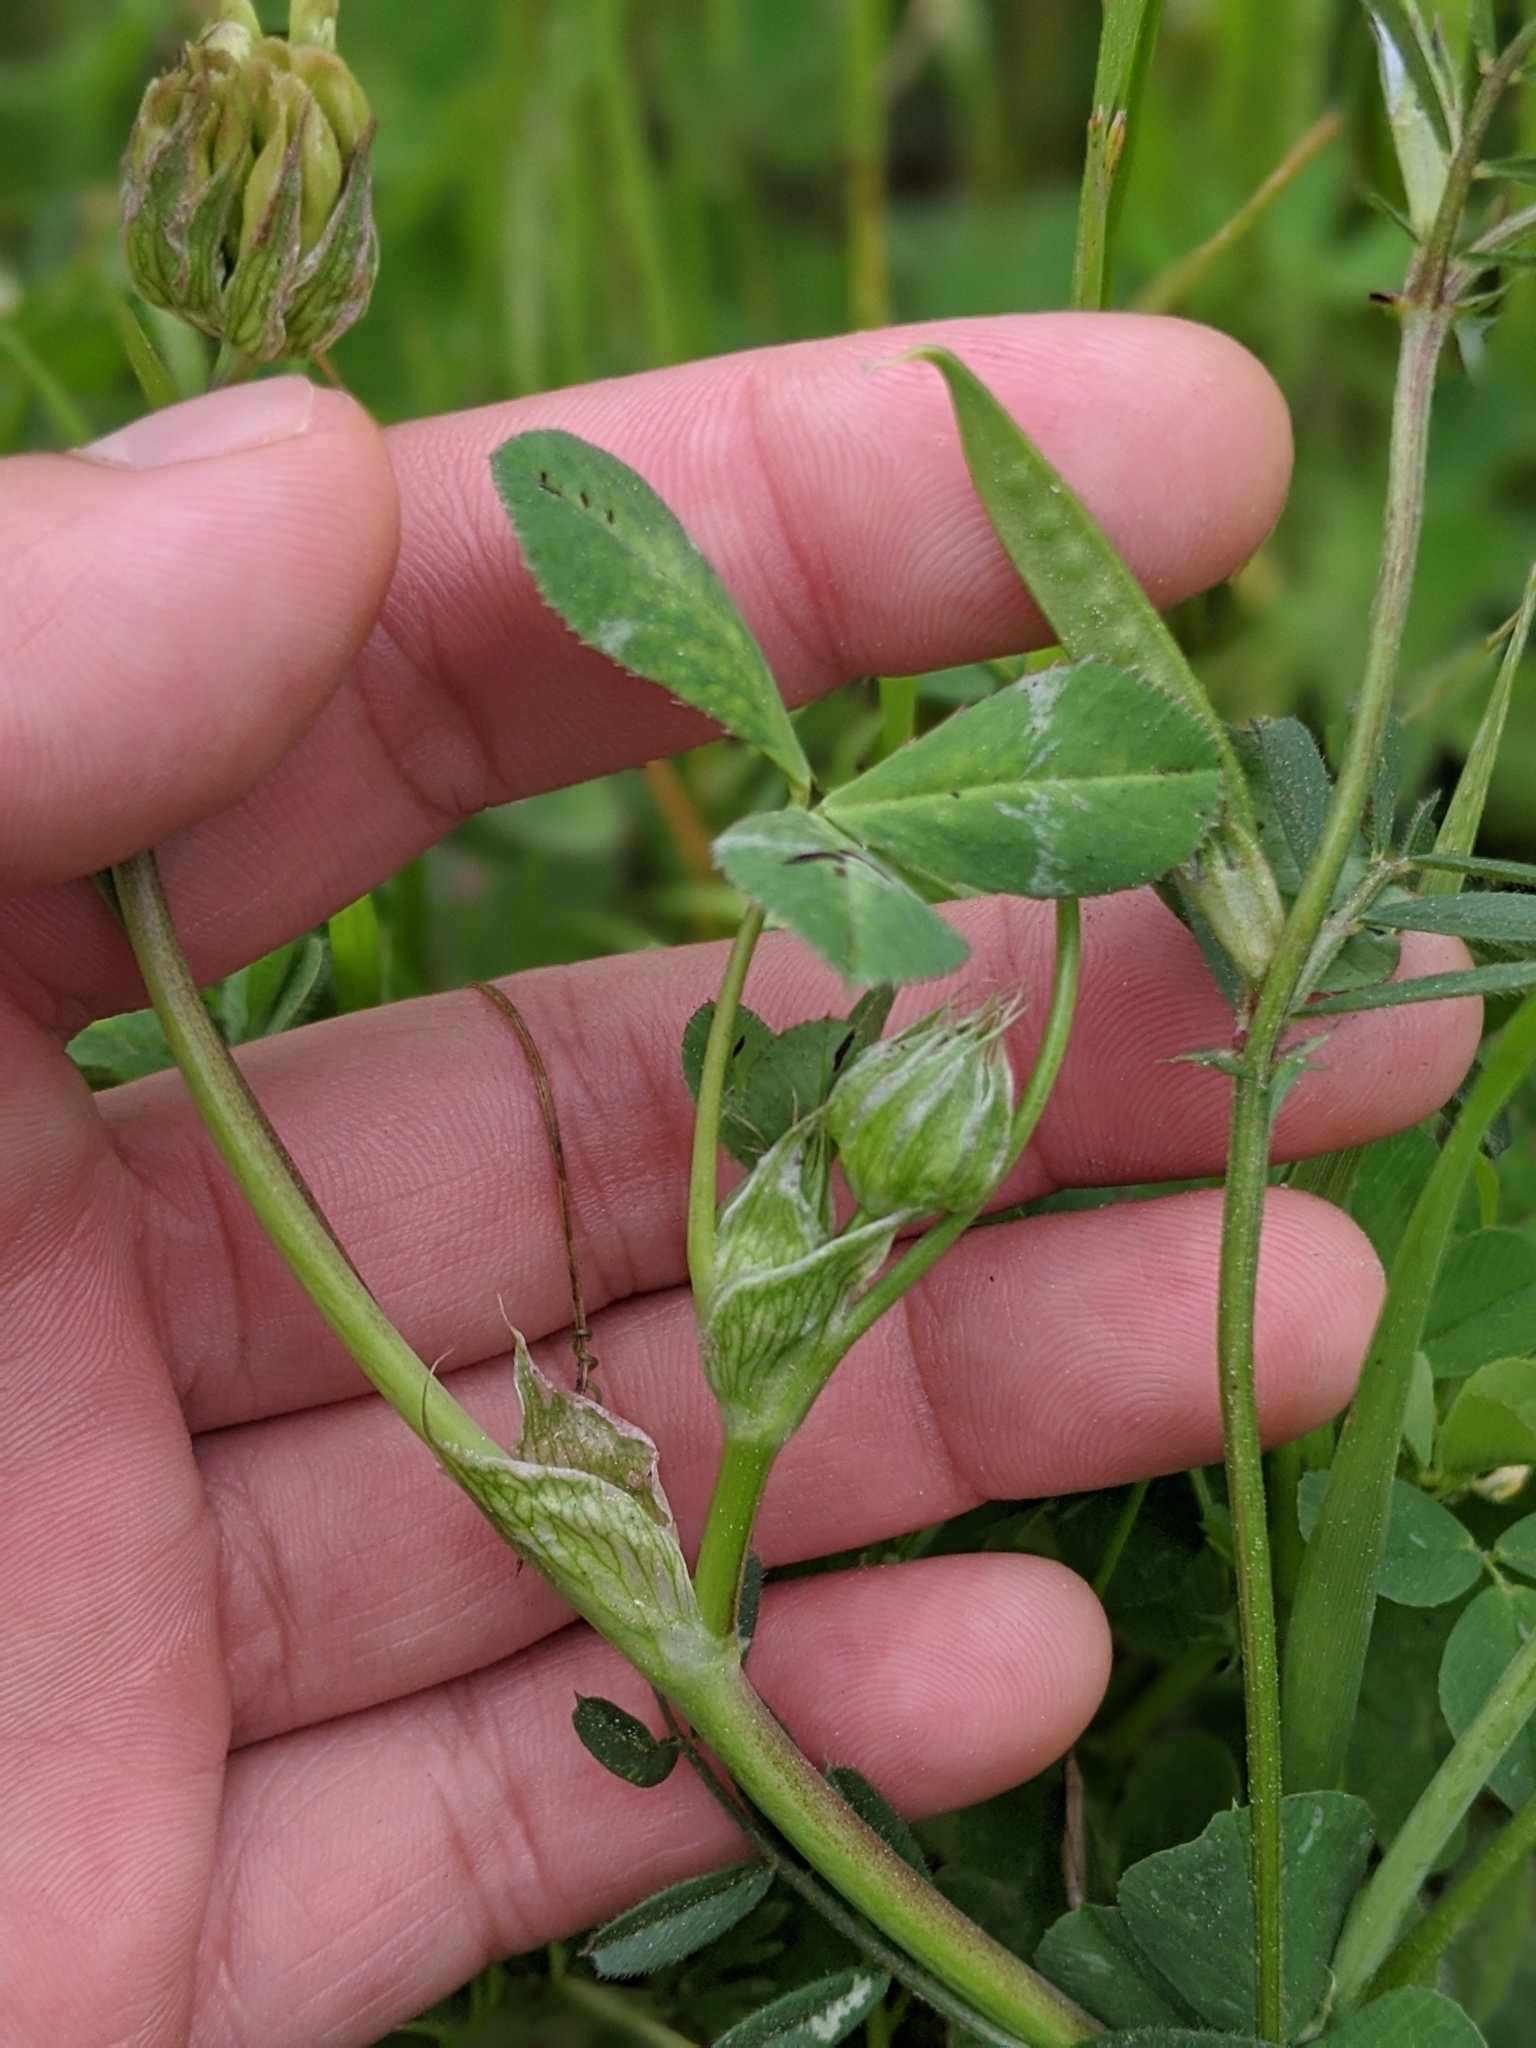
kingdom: Plantae
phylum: Tracheophyta
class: Magnoliopsida
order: Fabales
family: Fabaceae
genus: Trifolium
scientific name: Trifolium fucatum
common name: Puff clover
